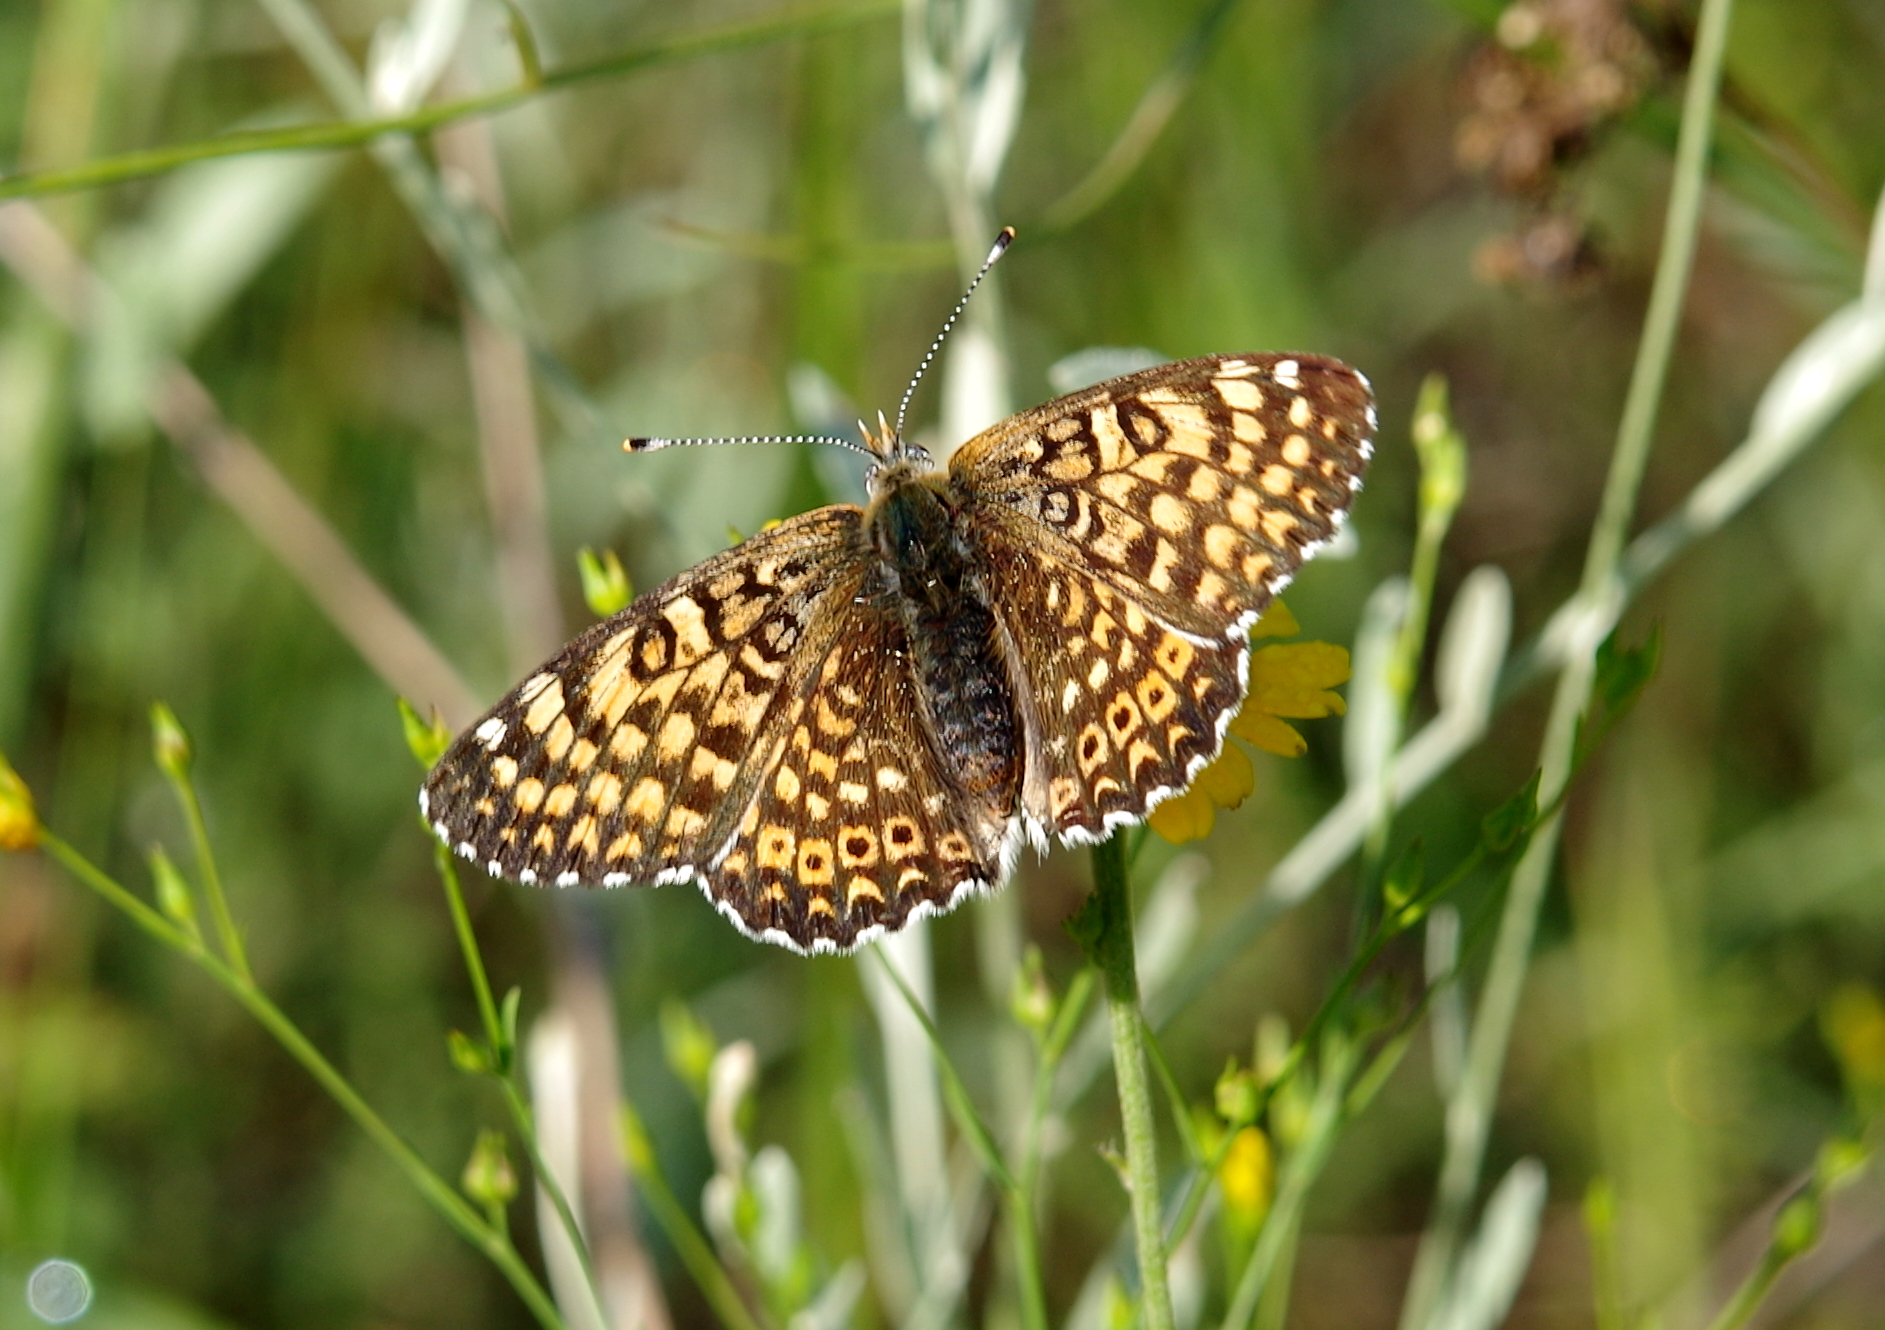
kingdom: Animalia
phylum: Arthropoda
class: Insecta
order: Lepidoptera
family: Nymphalidae
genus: Melitaea
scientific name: Melitaea cinxia
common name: Glanville fritillary
